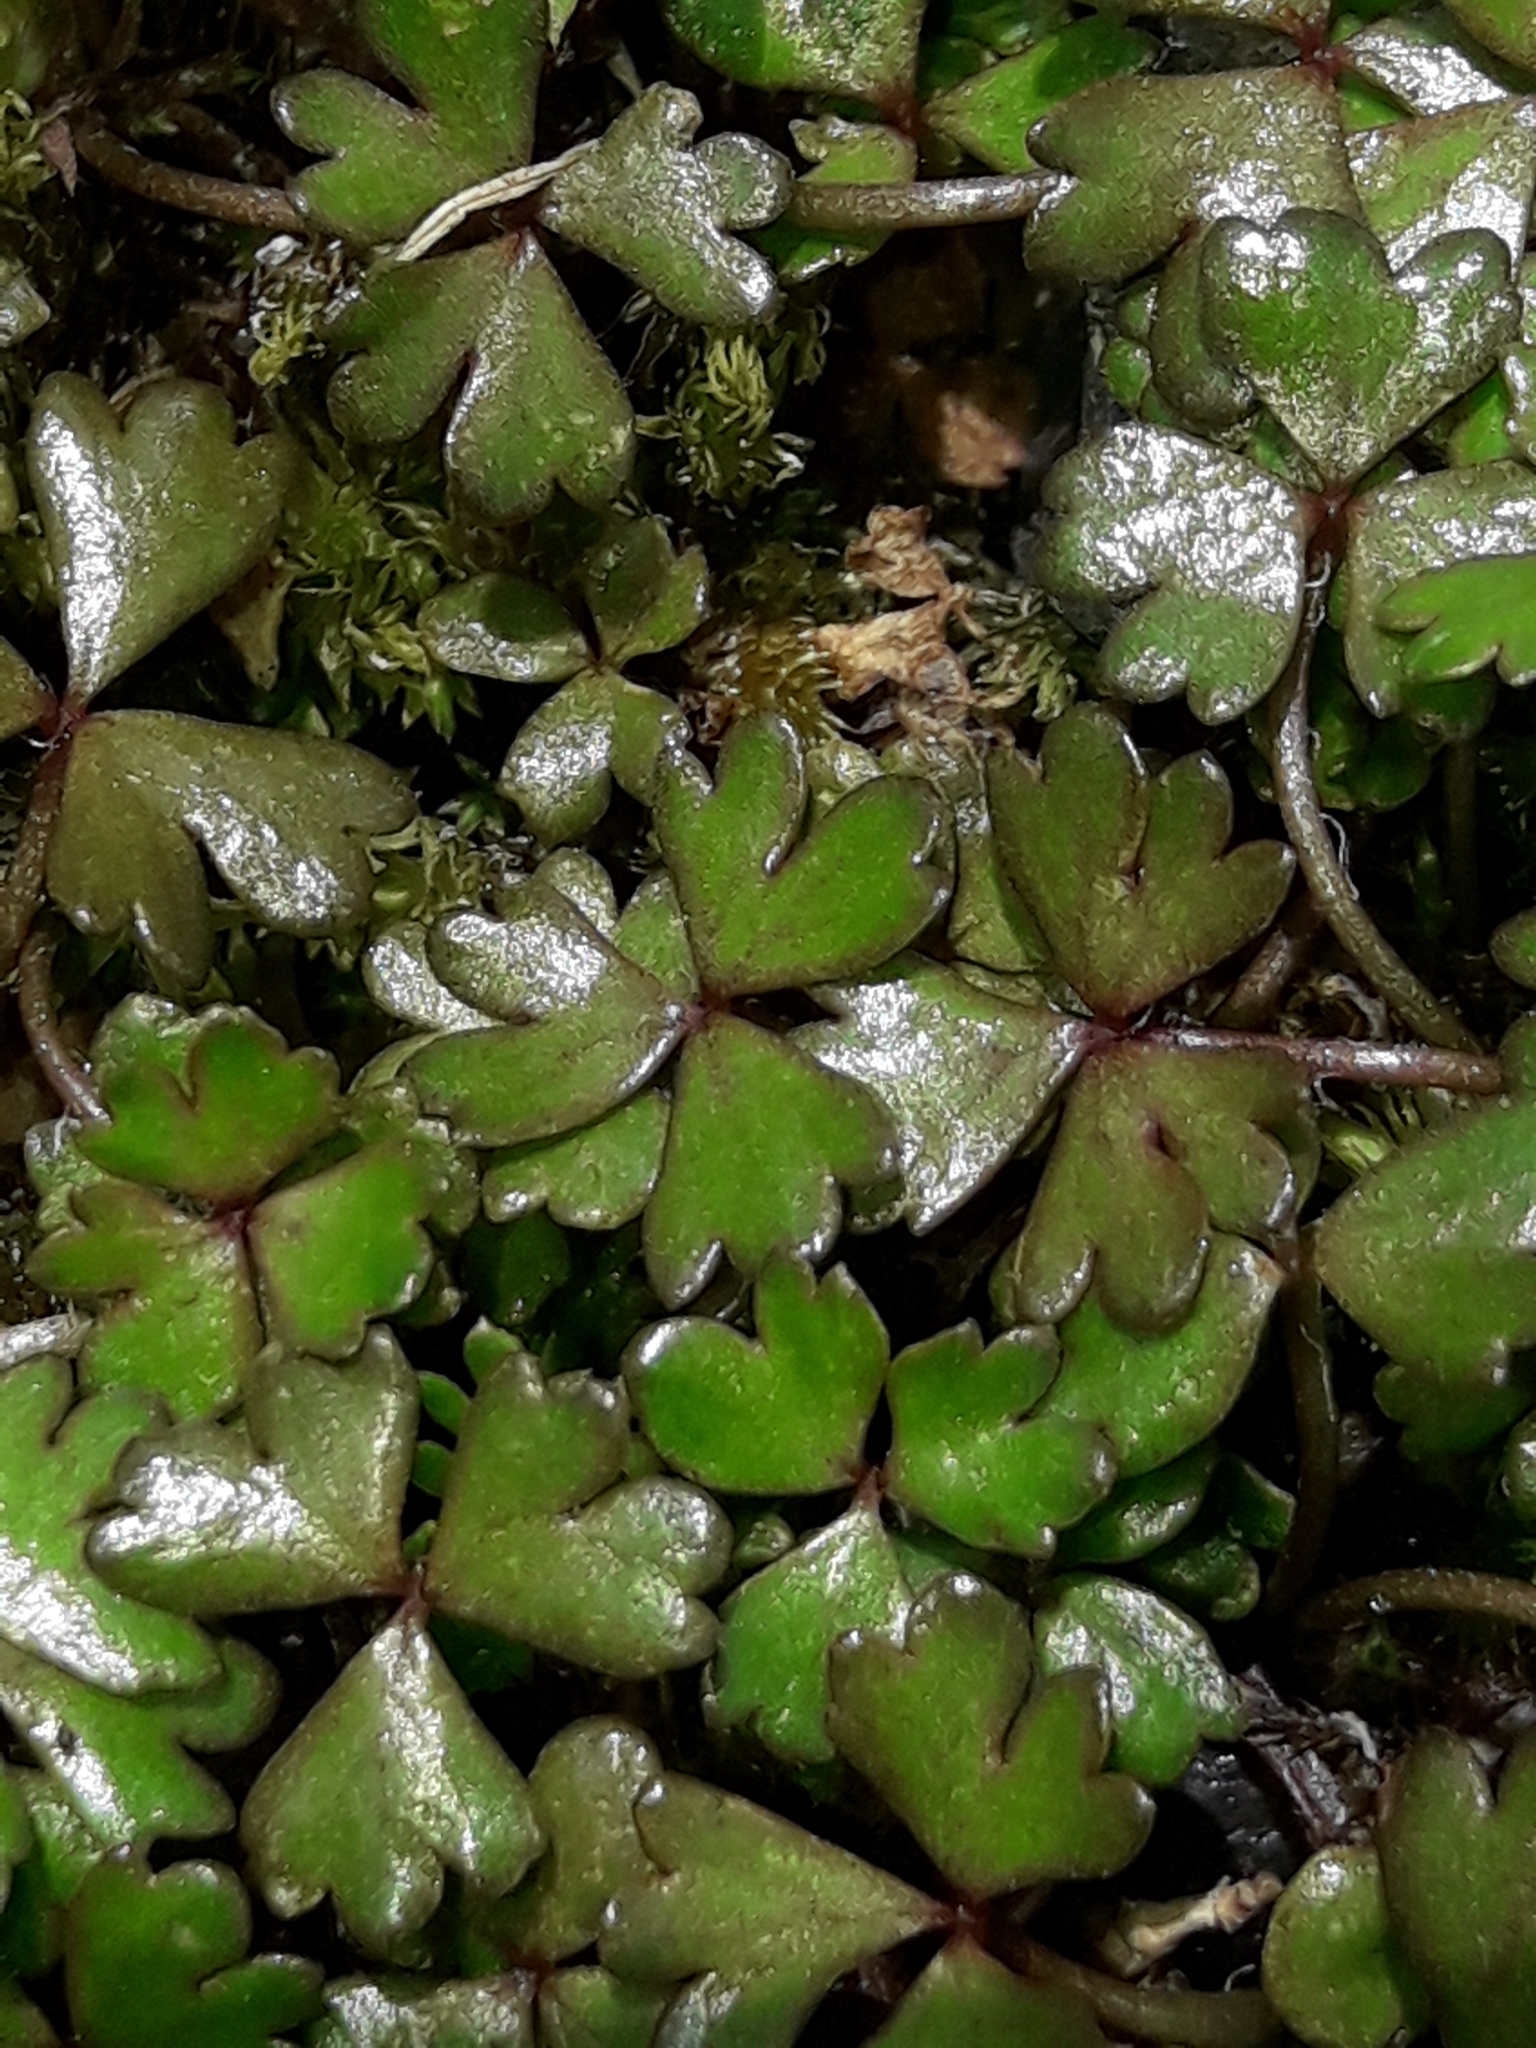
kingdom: Plantae
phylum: Tracheophyta
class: Magnoliopsida
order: Apiales
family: Araliaceae
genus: Hydrocotyle
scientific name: Hydrocotyle sulcata
